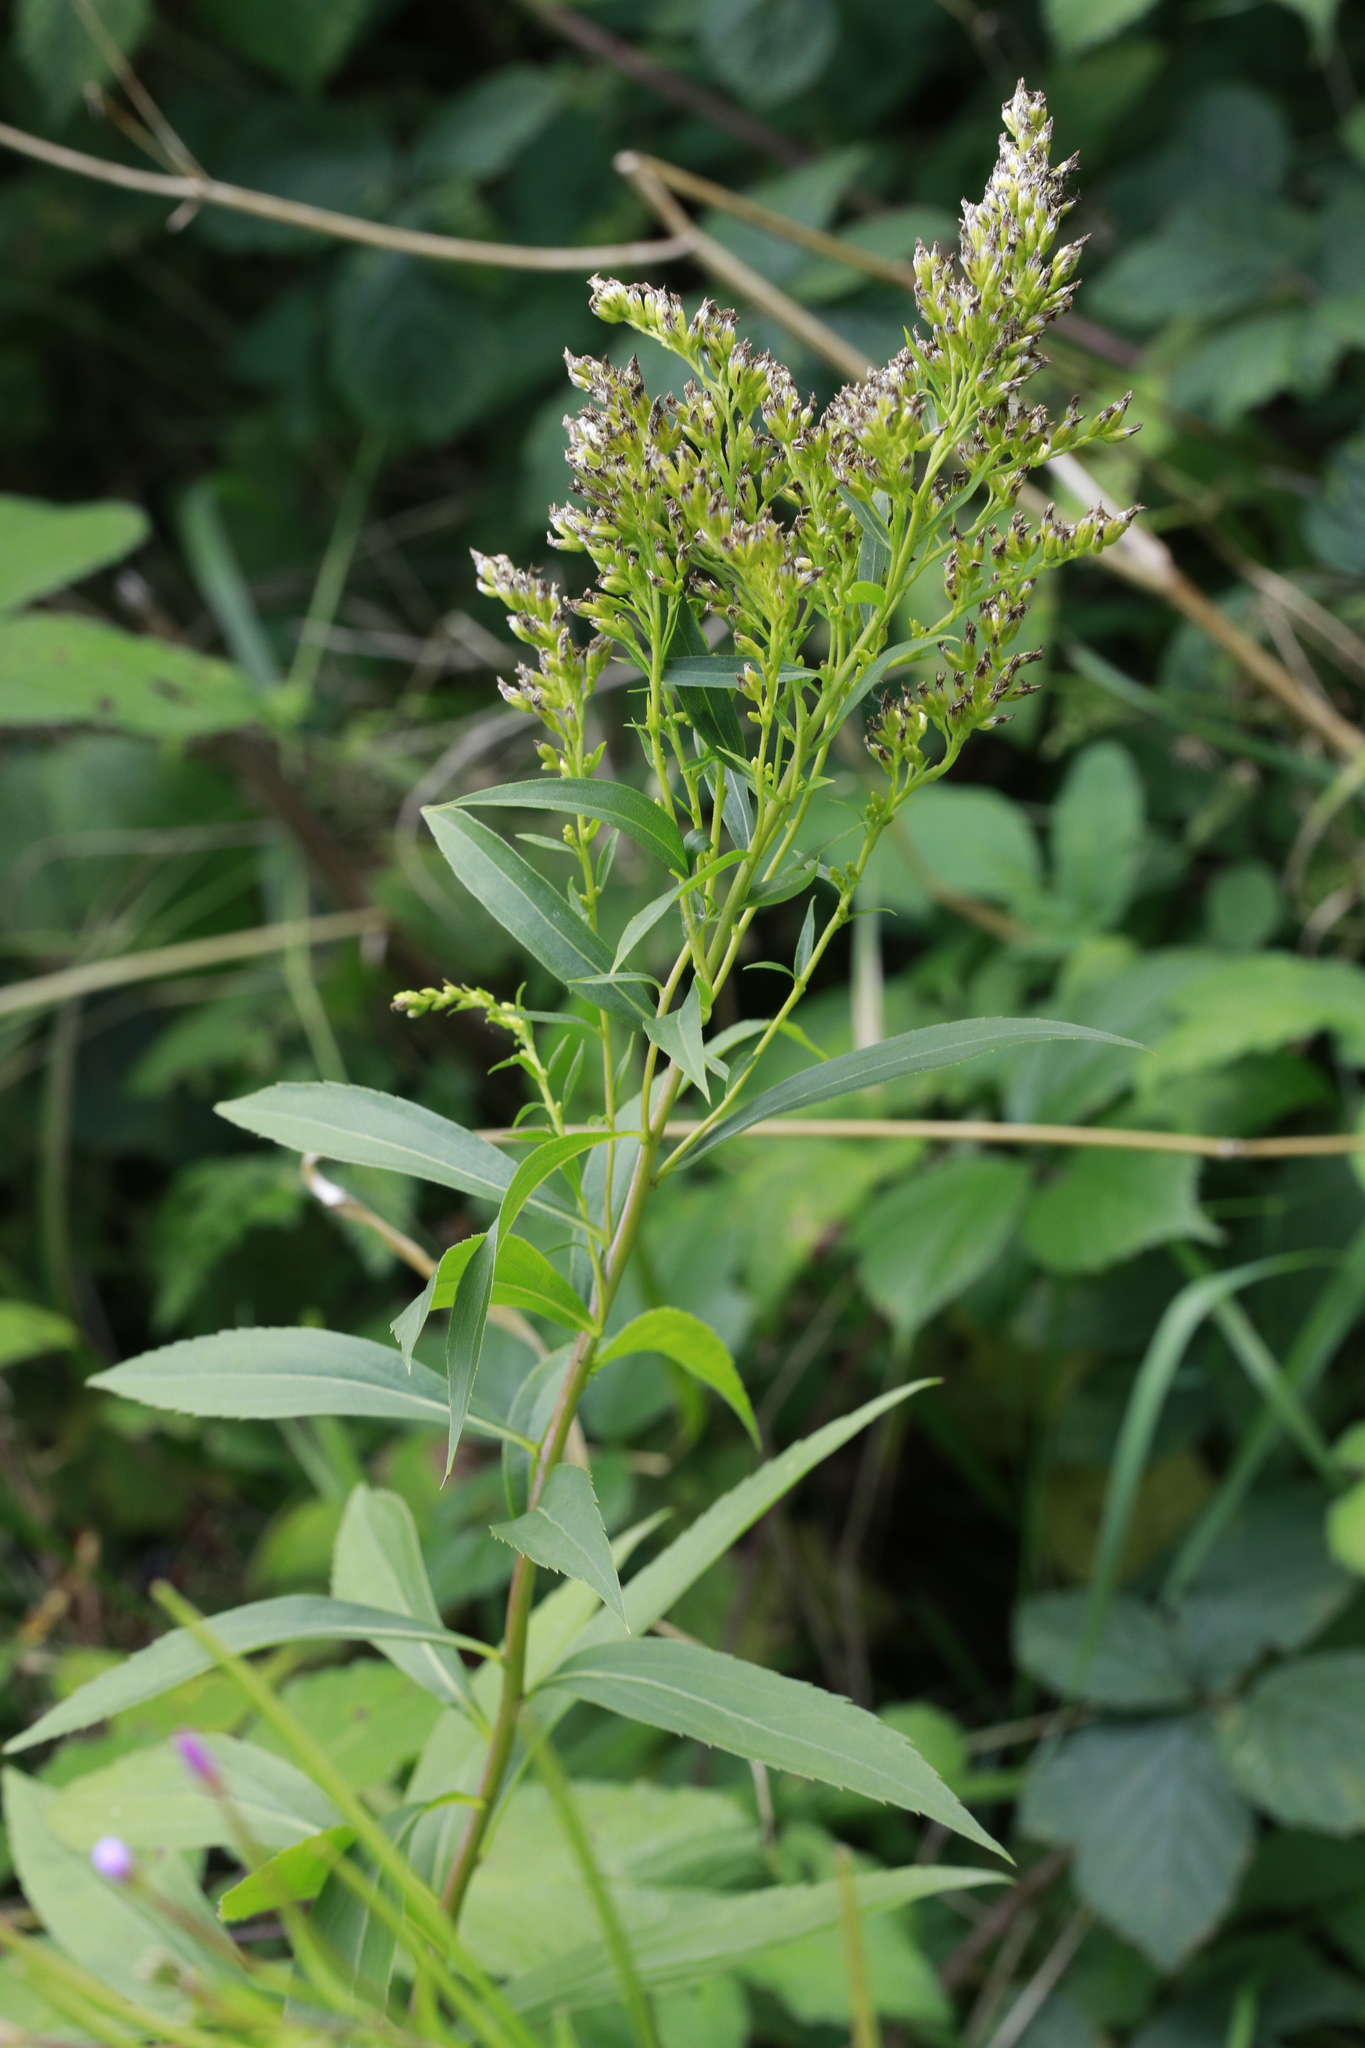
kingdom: Plantae
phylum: Tracheophyta
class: Magnoliopsida
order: Asterales
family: Asteraceae
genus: Solidago
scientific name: Solidago gigantea
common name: Giant goldenrod
